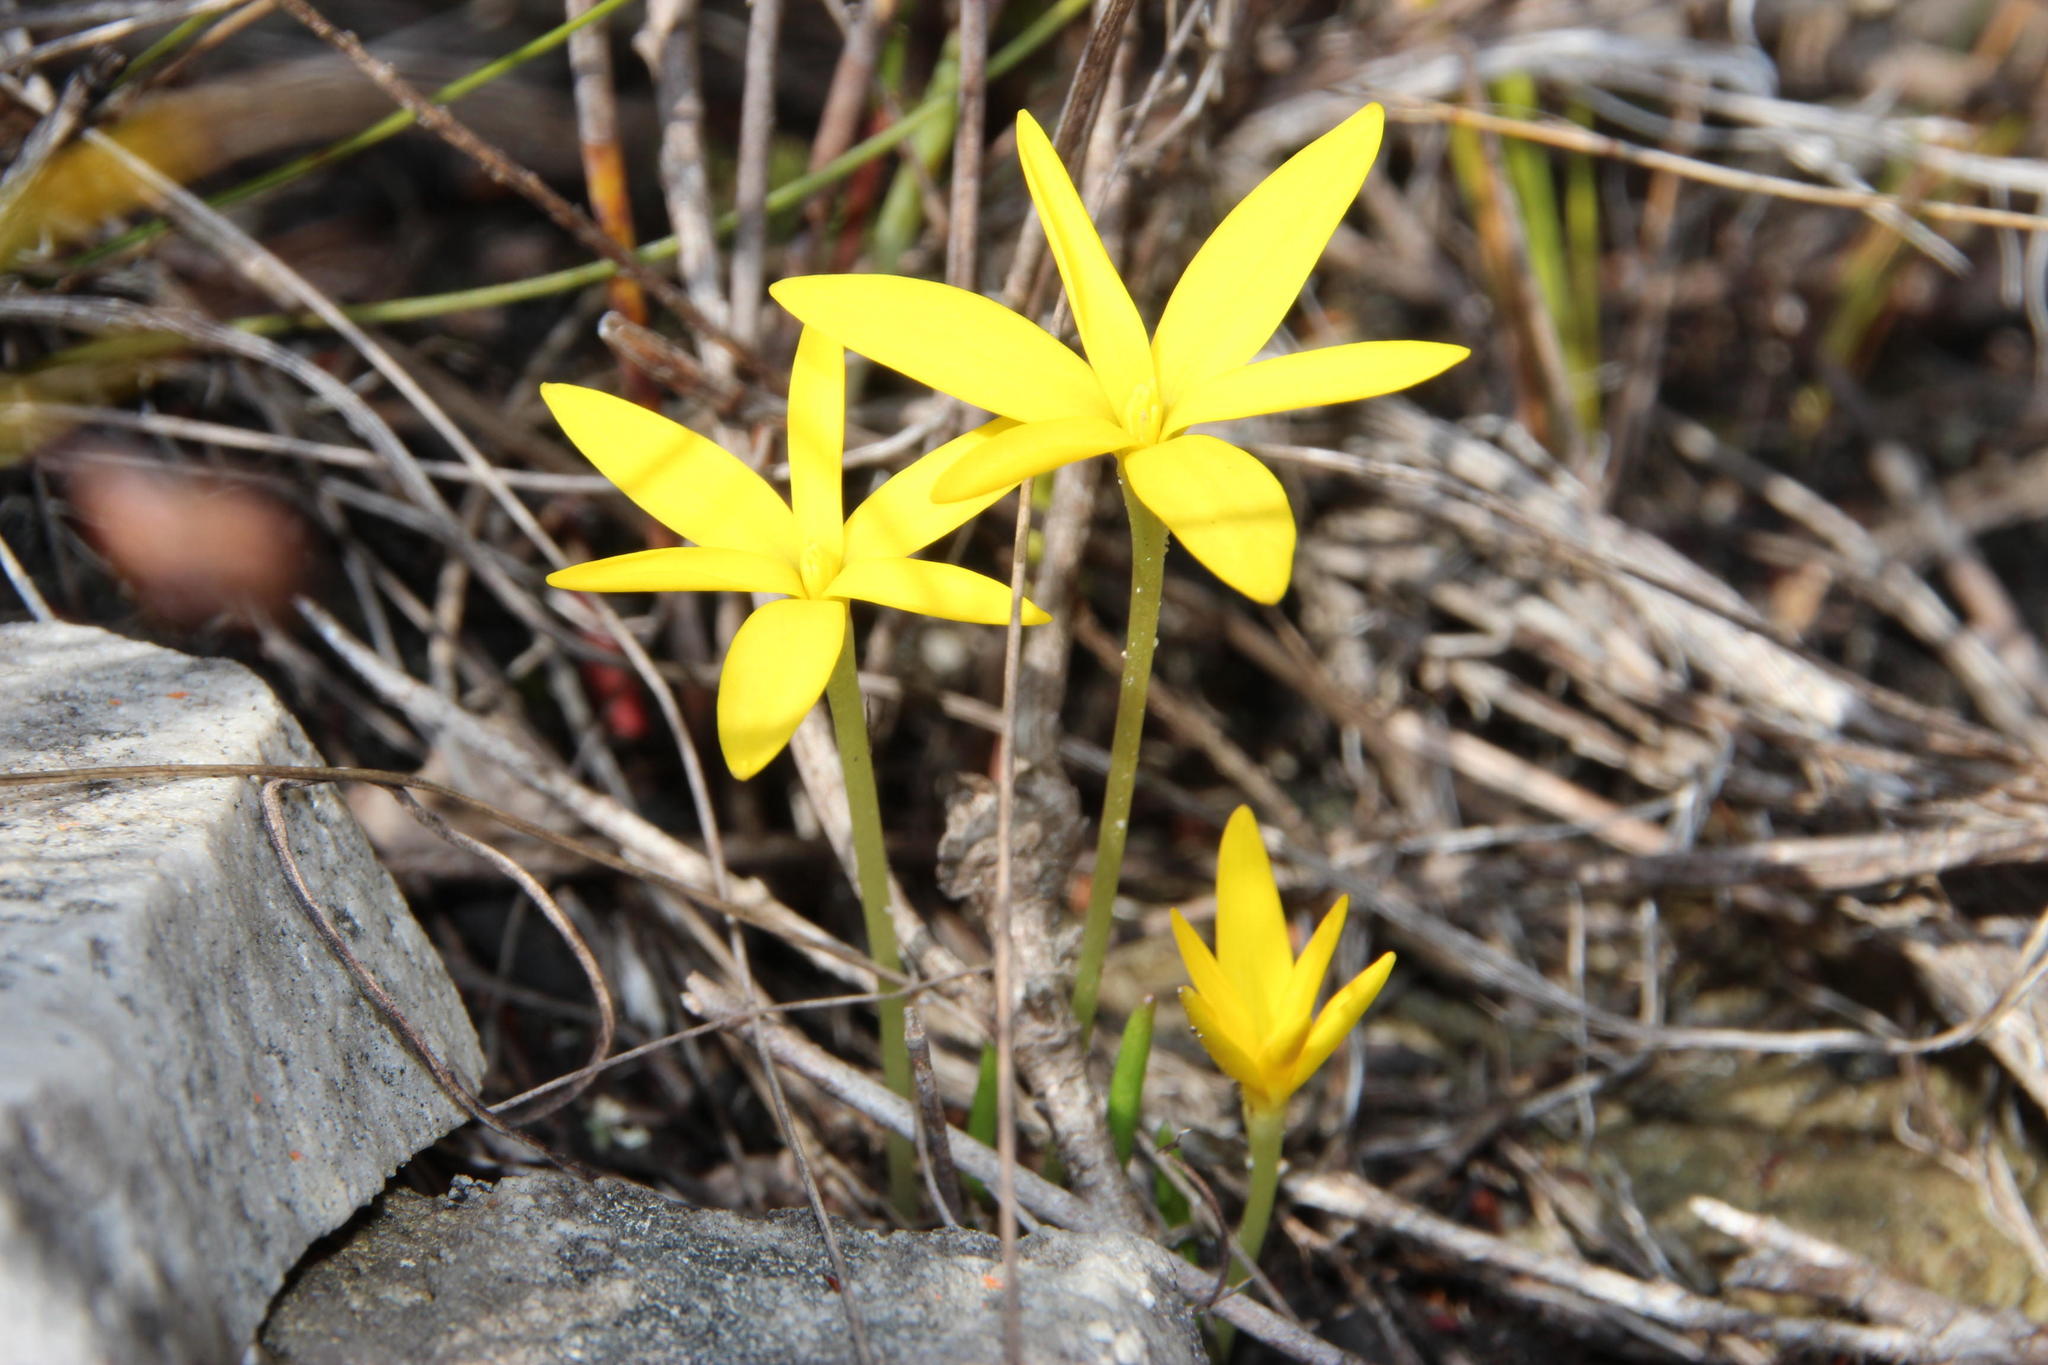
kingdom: Plantae
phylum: Tracheophyta
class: Liliopsida
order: Asparagales
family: Hypoxidaceae
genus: Pauridia
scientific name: Pauridia monophylla
